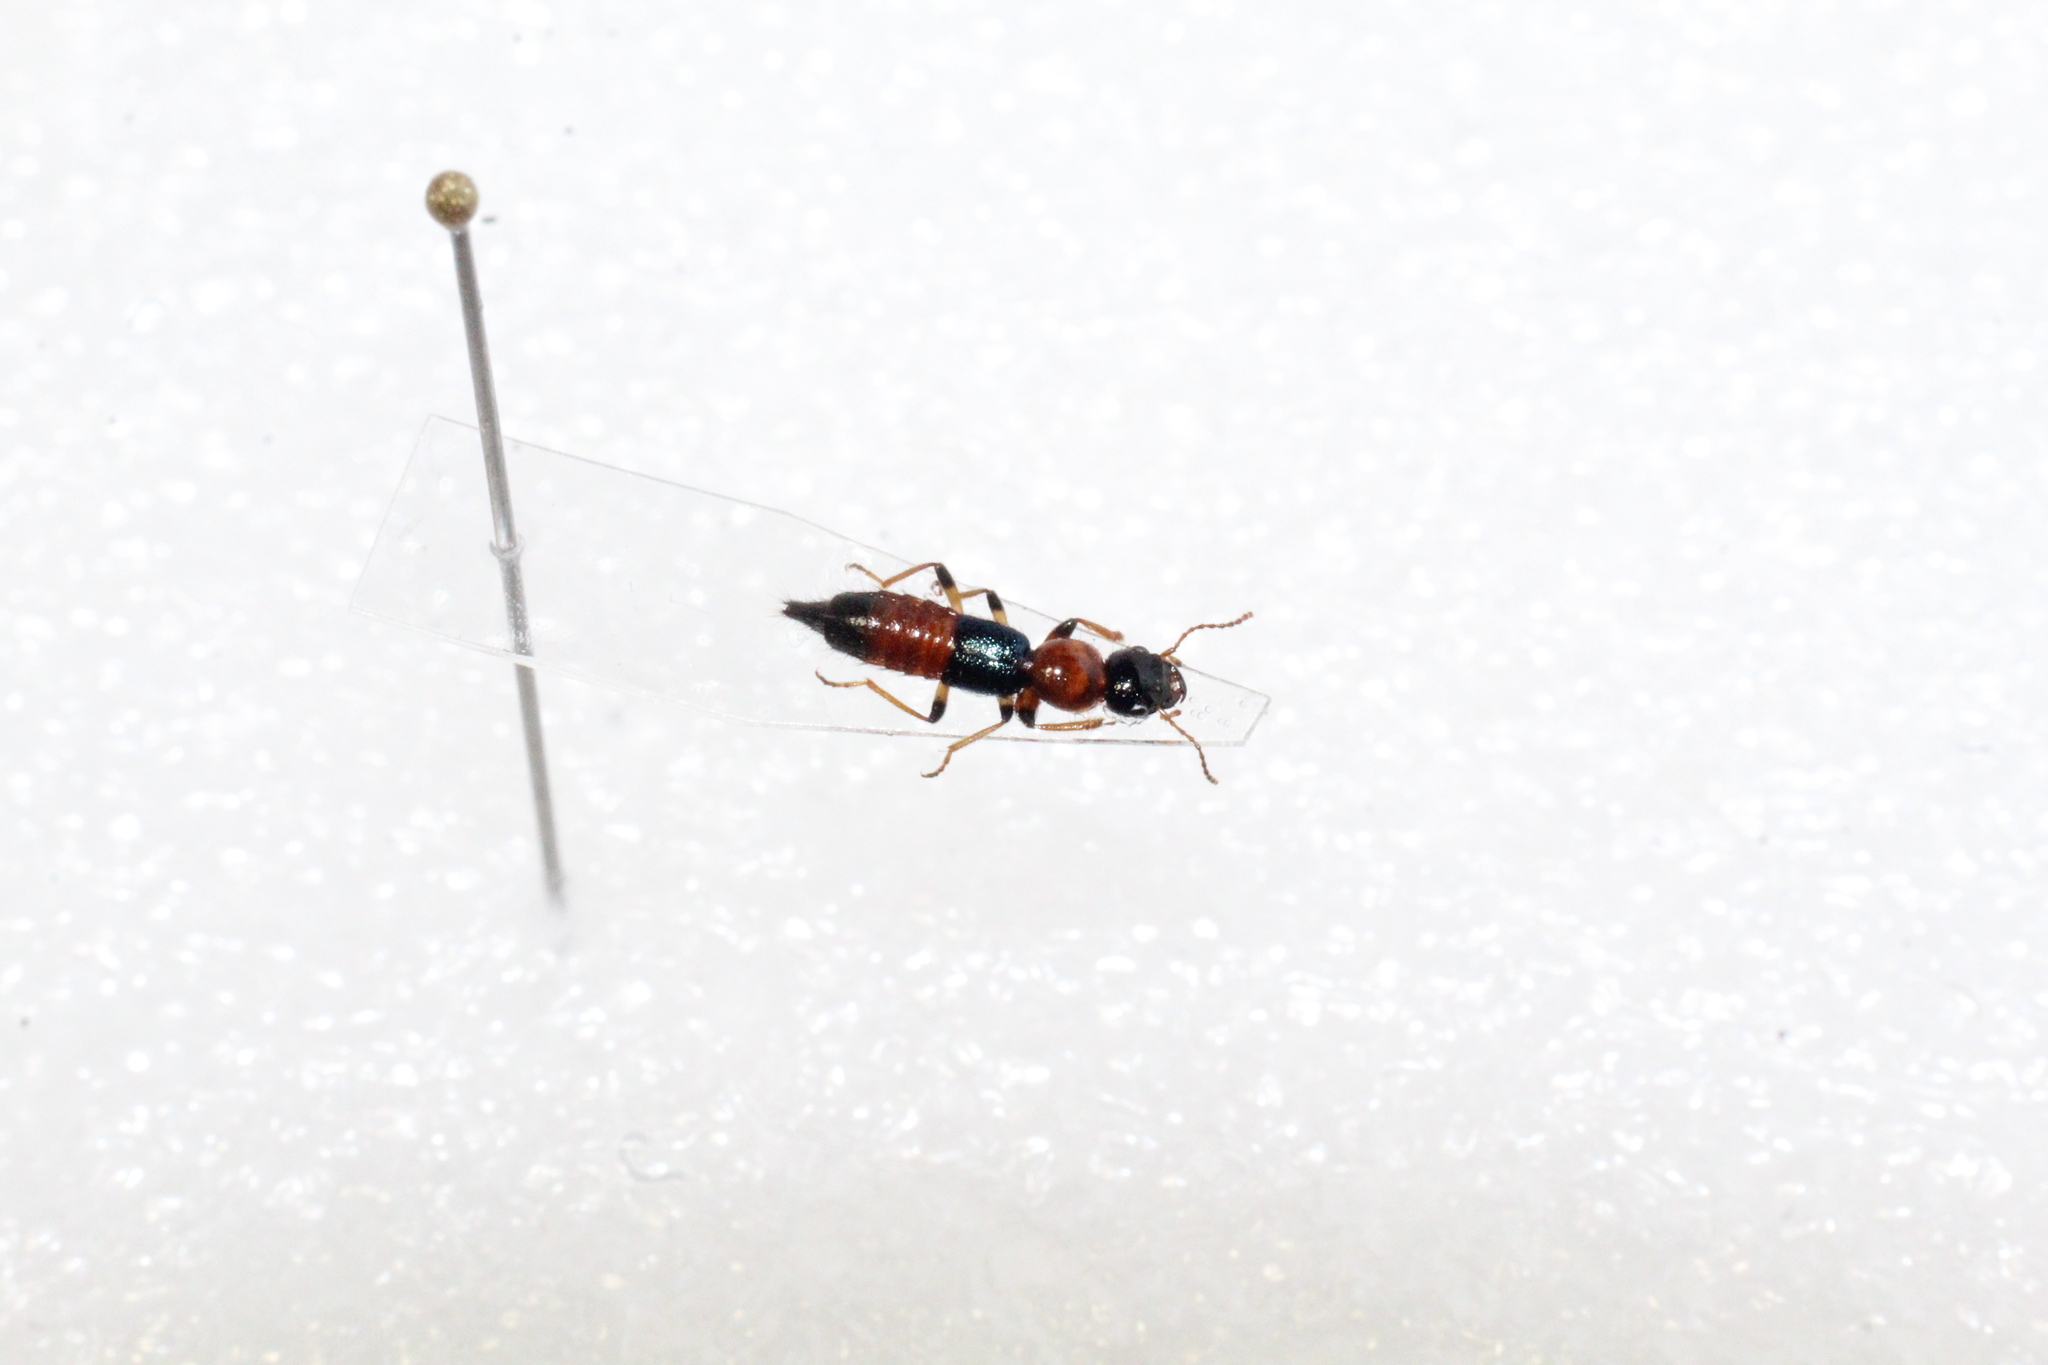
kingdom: Animalia
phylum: Arthropoda
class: Insecta
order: Coleoptera
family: Staphylinidae
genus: Paederus
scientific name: Paederus littoralis
